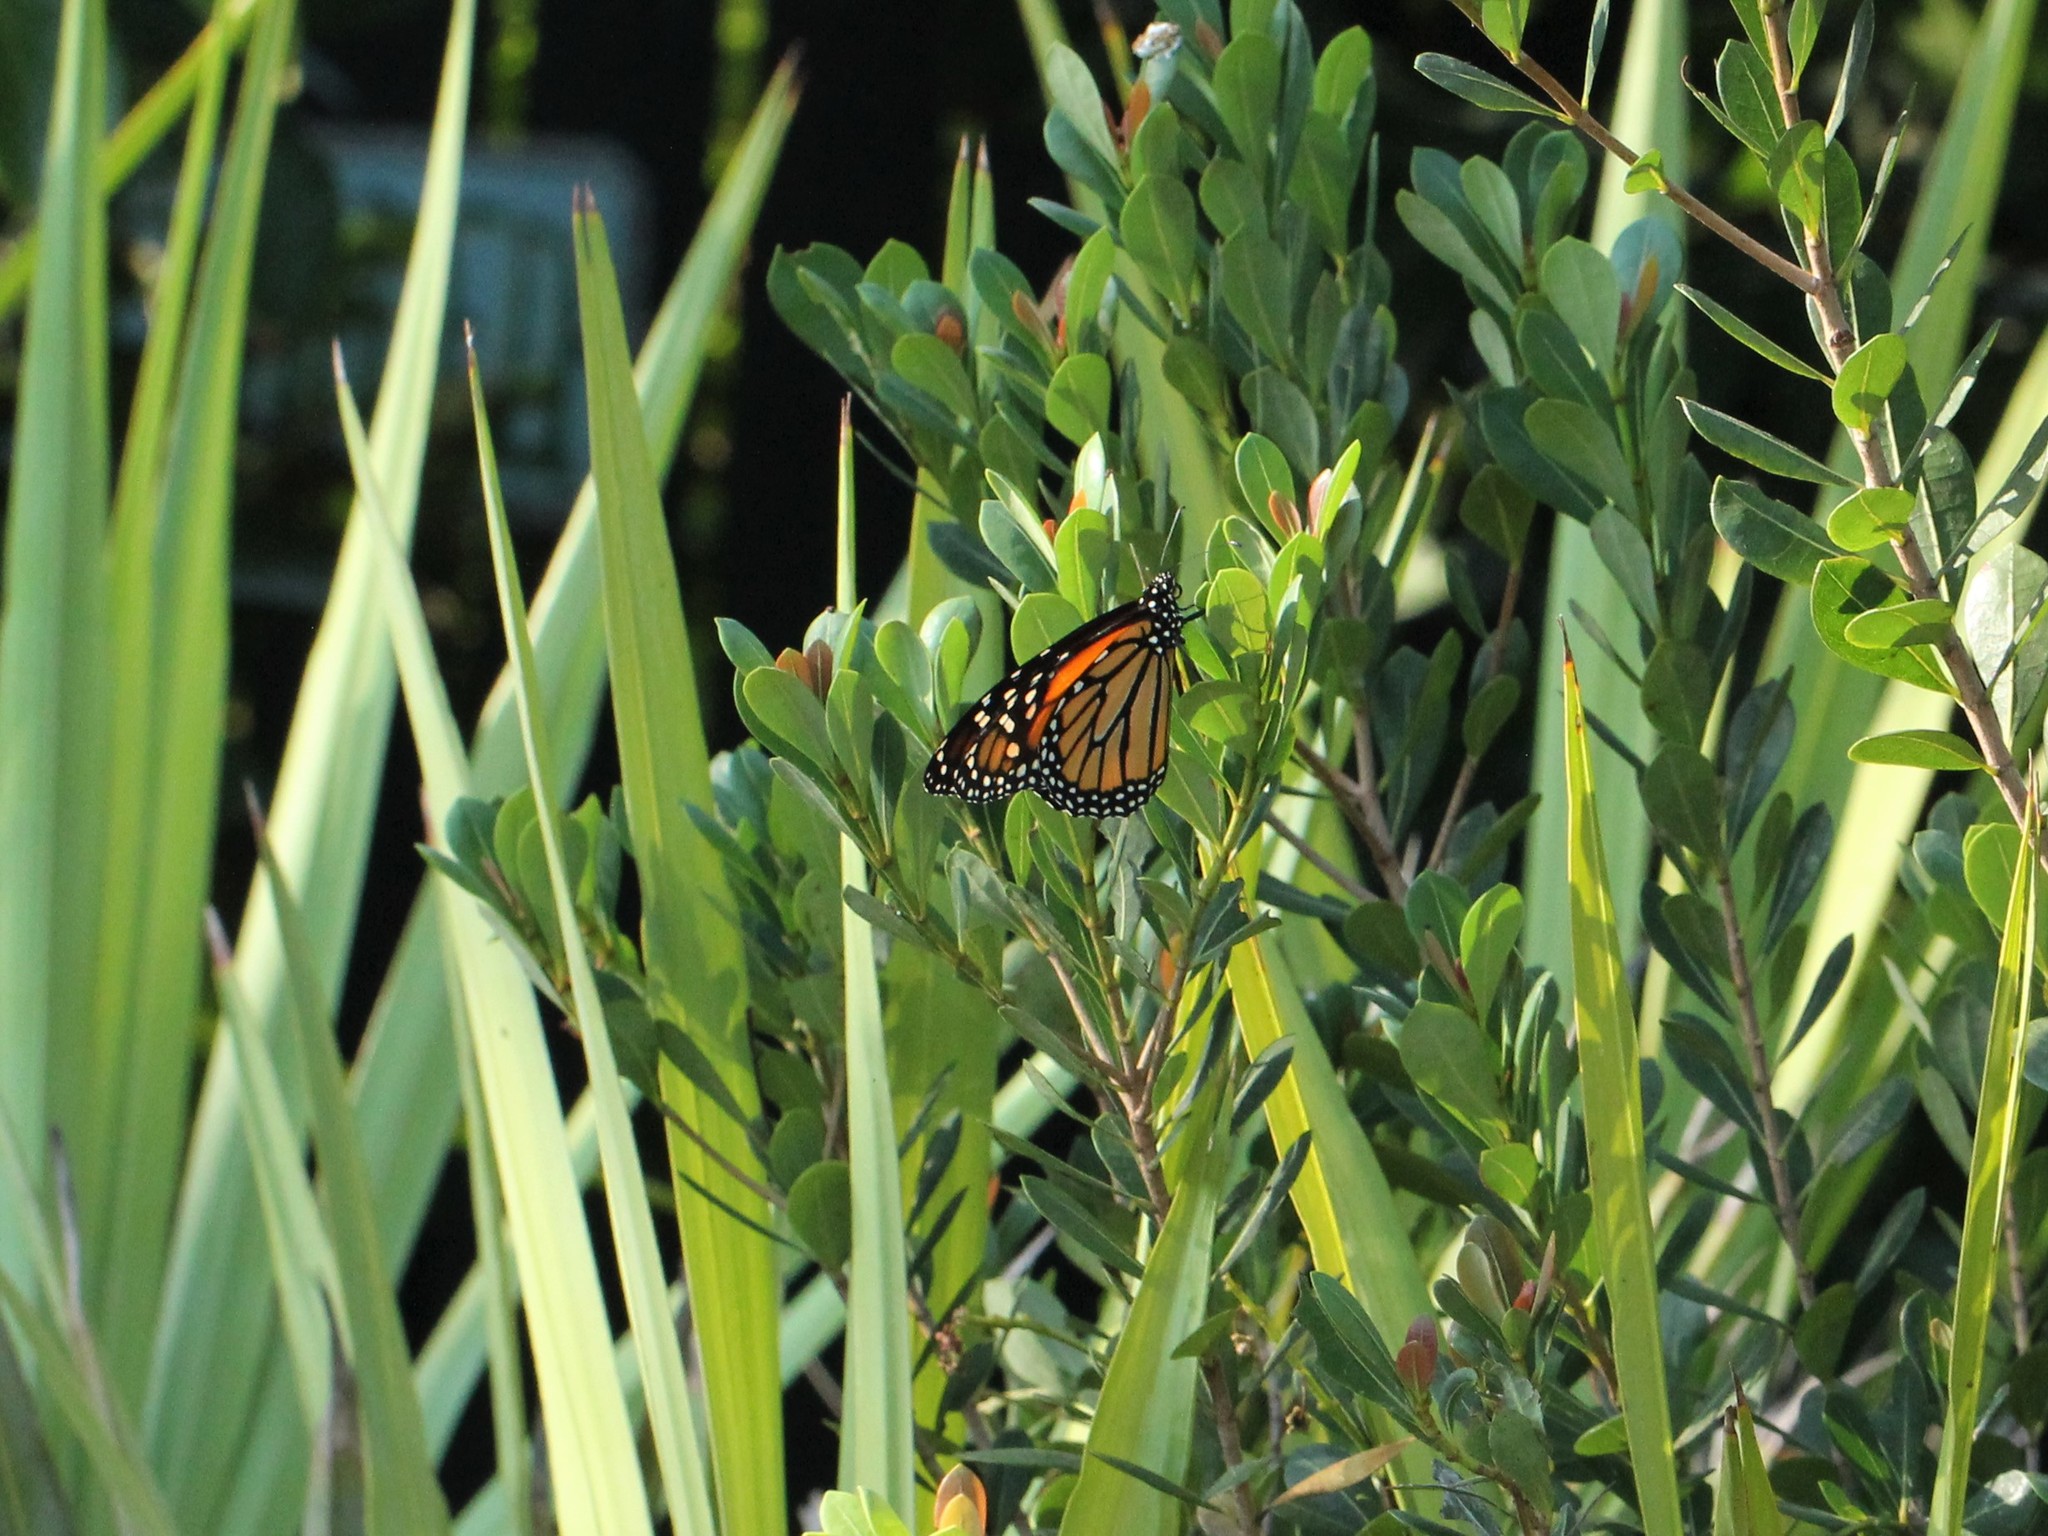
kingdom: Animalia
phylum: Arthropoda
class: Insecta
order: Lepidoptera
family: Nymphalidae
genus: Danaus
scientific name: Danaus plexippus
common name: Monarch
